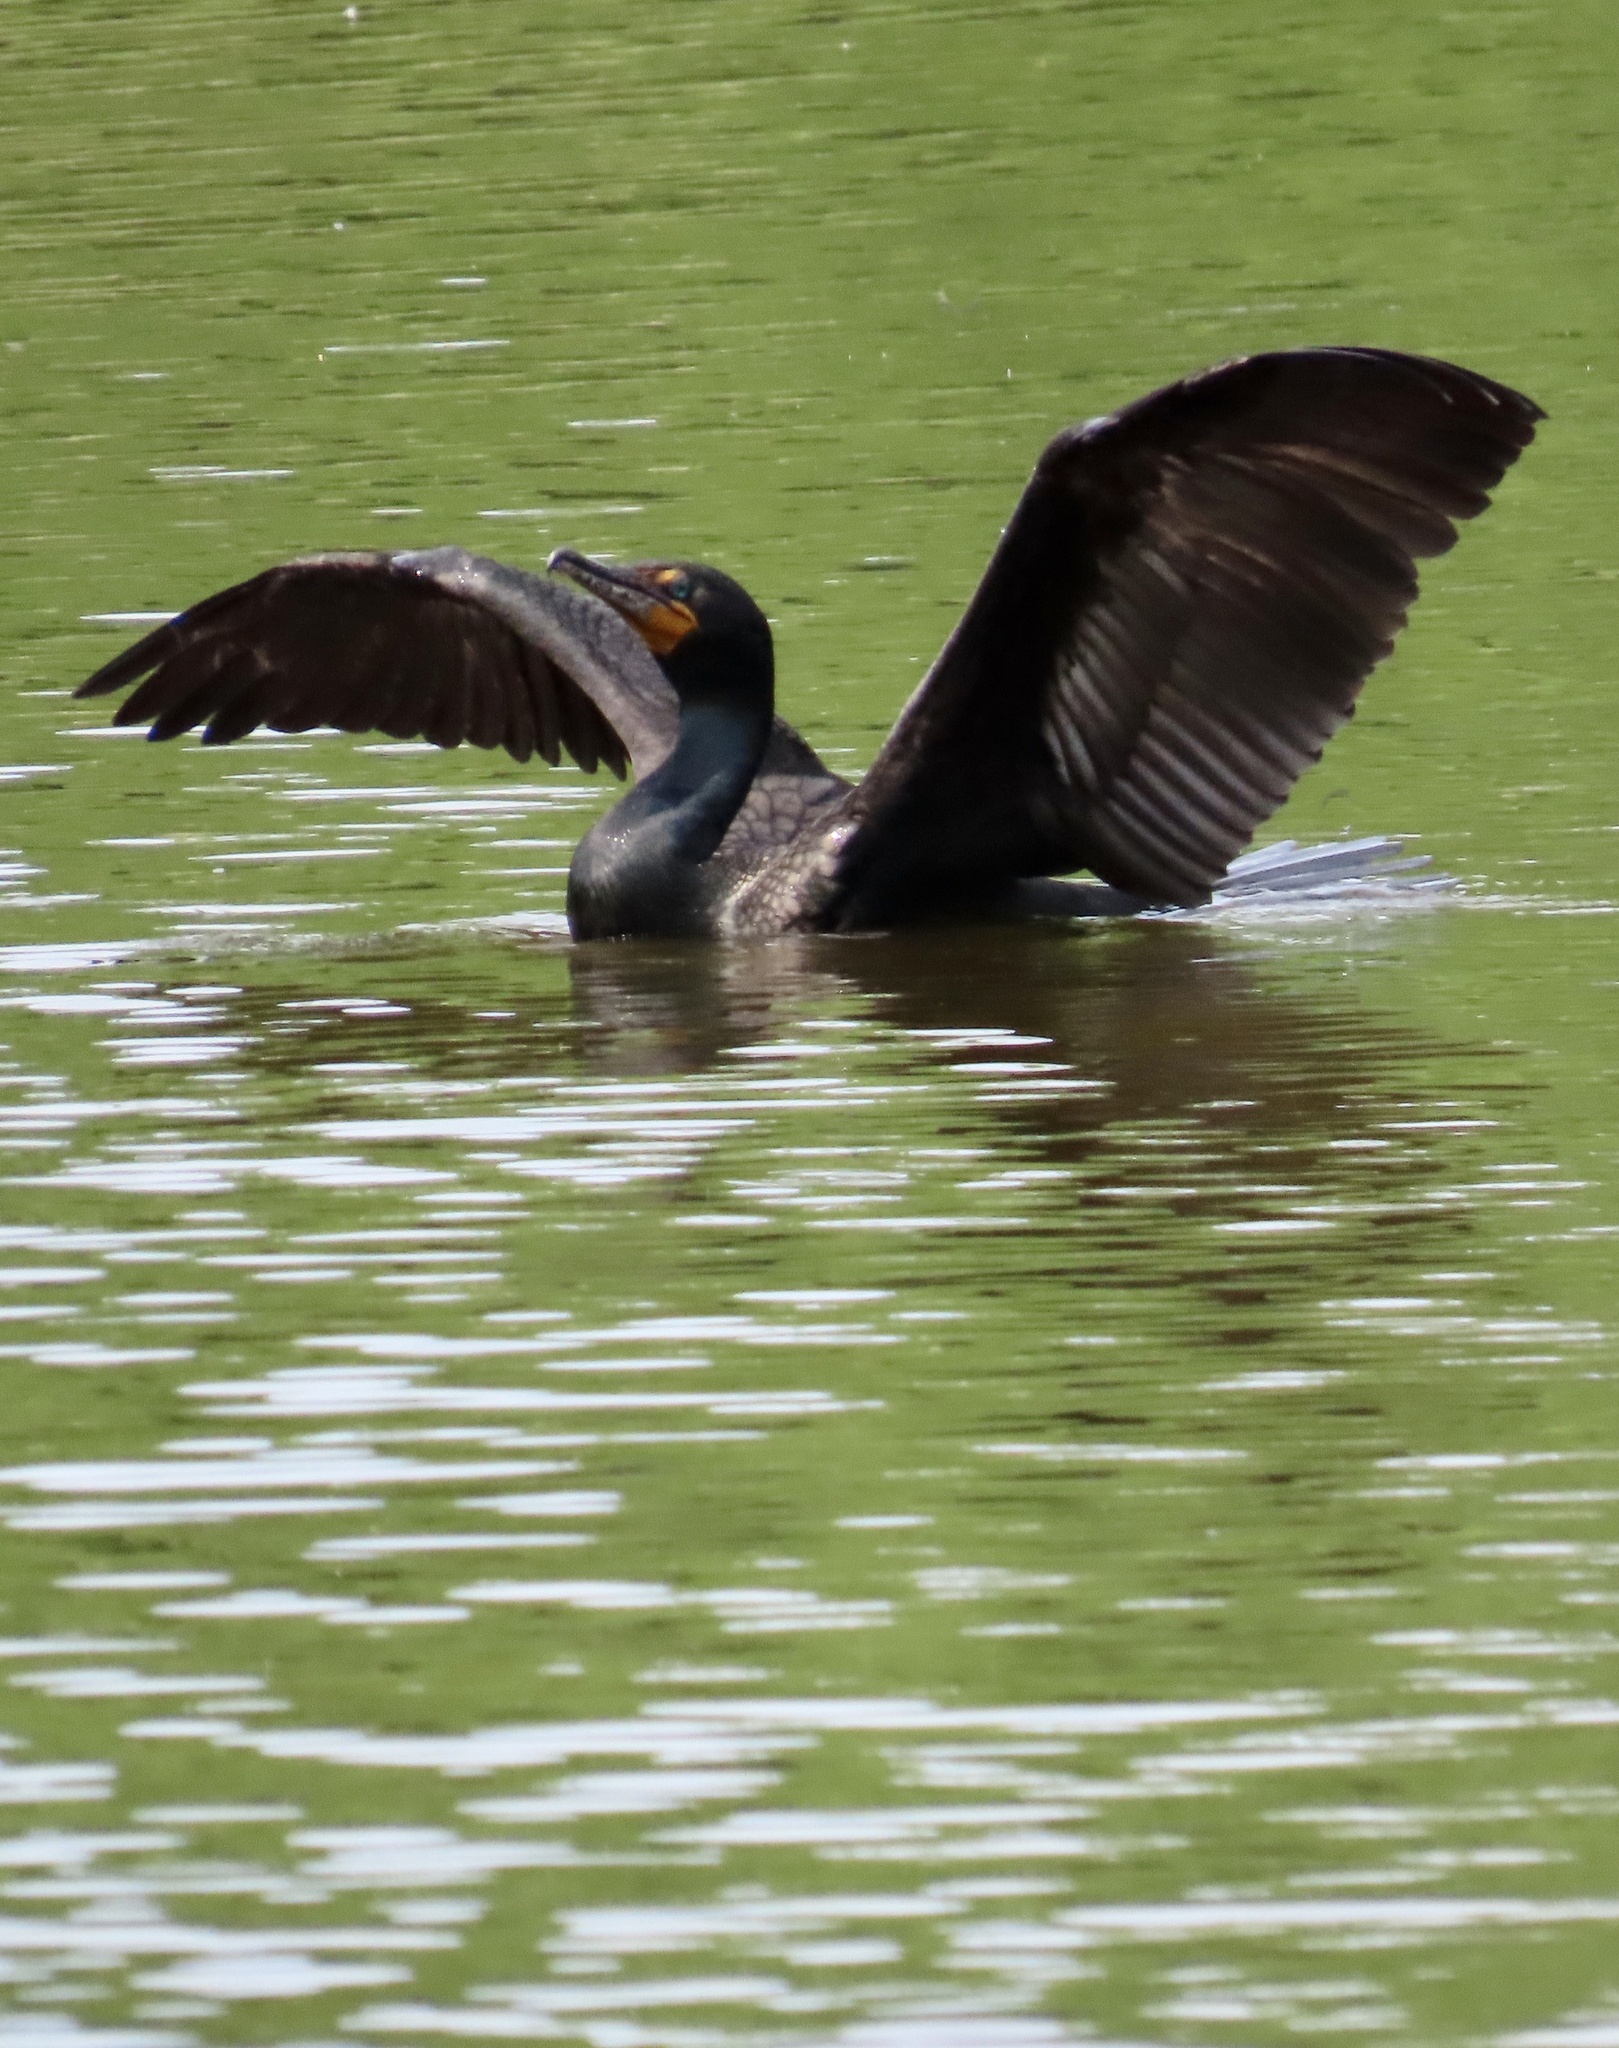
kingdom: Animalia
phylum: Chordata
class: Aves
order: Suliformes
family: Phalacrocoracidae
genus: Phalacrocorax
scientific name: Phalacrocorax auritus
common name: Double-crested cormorant
